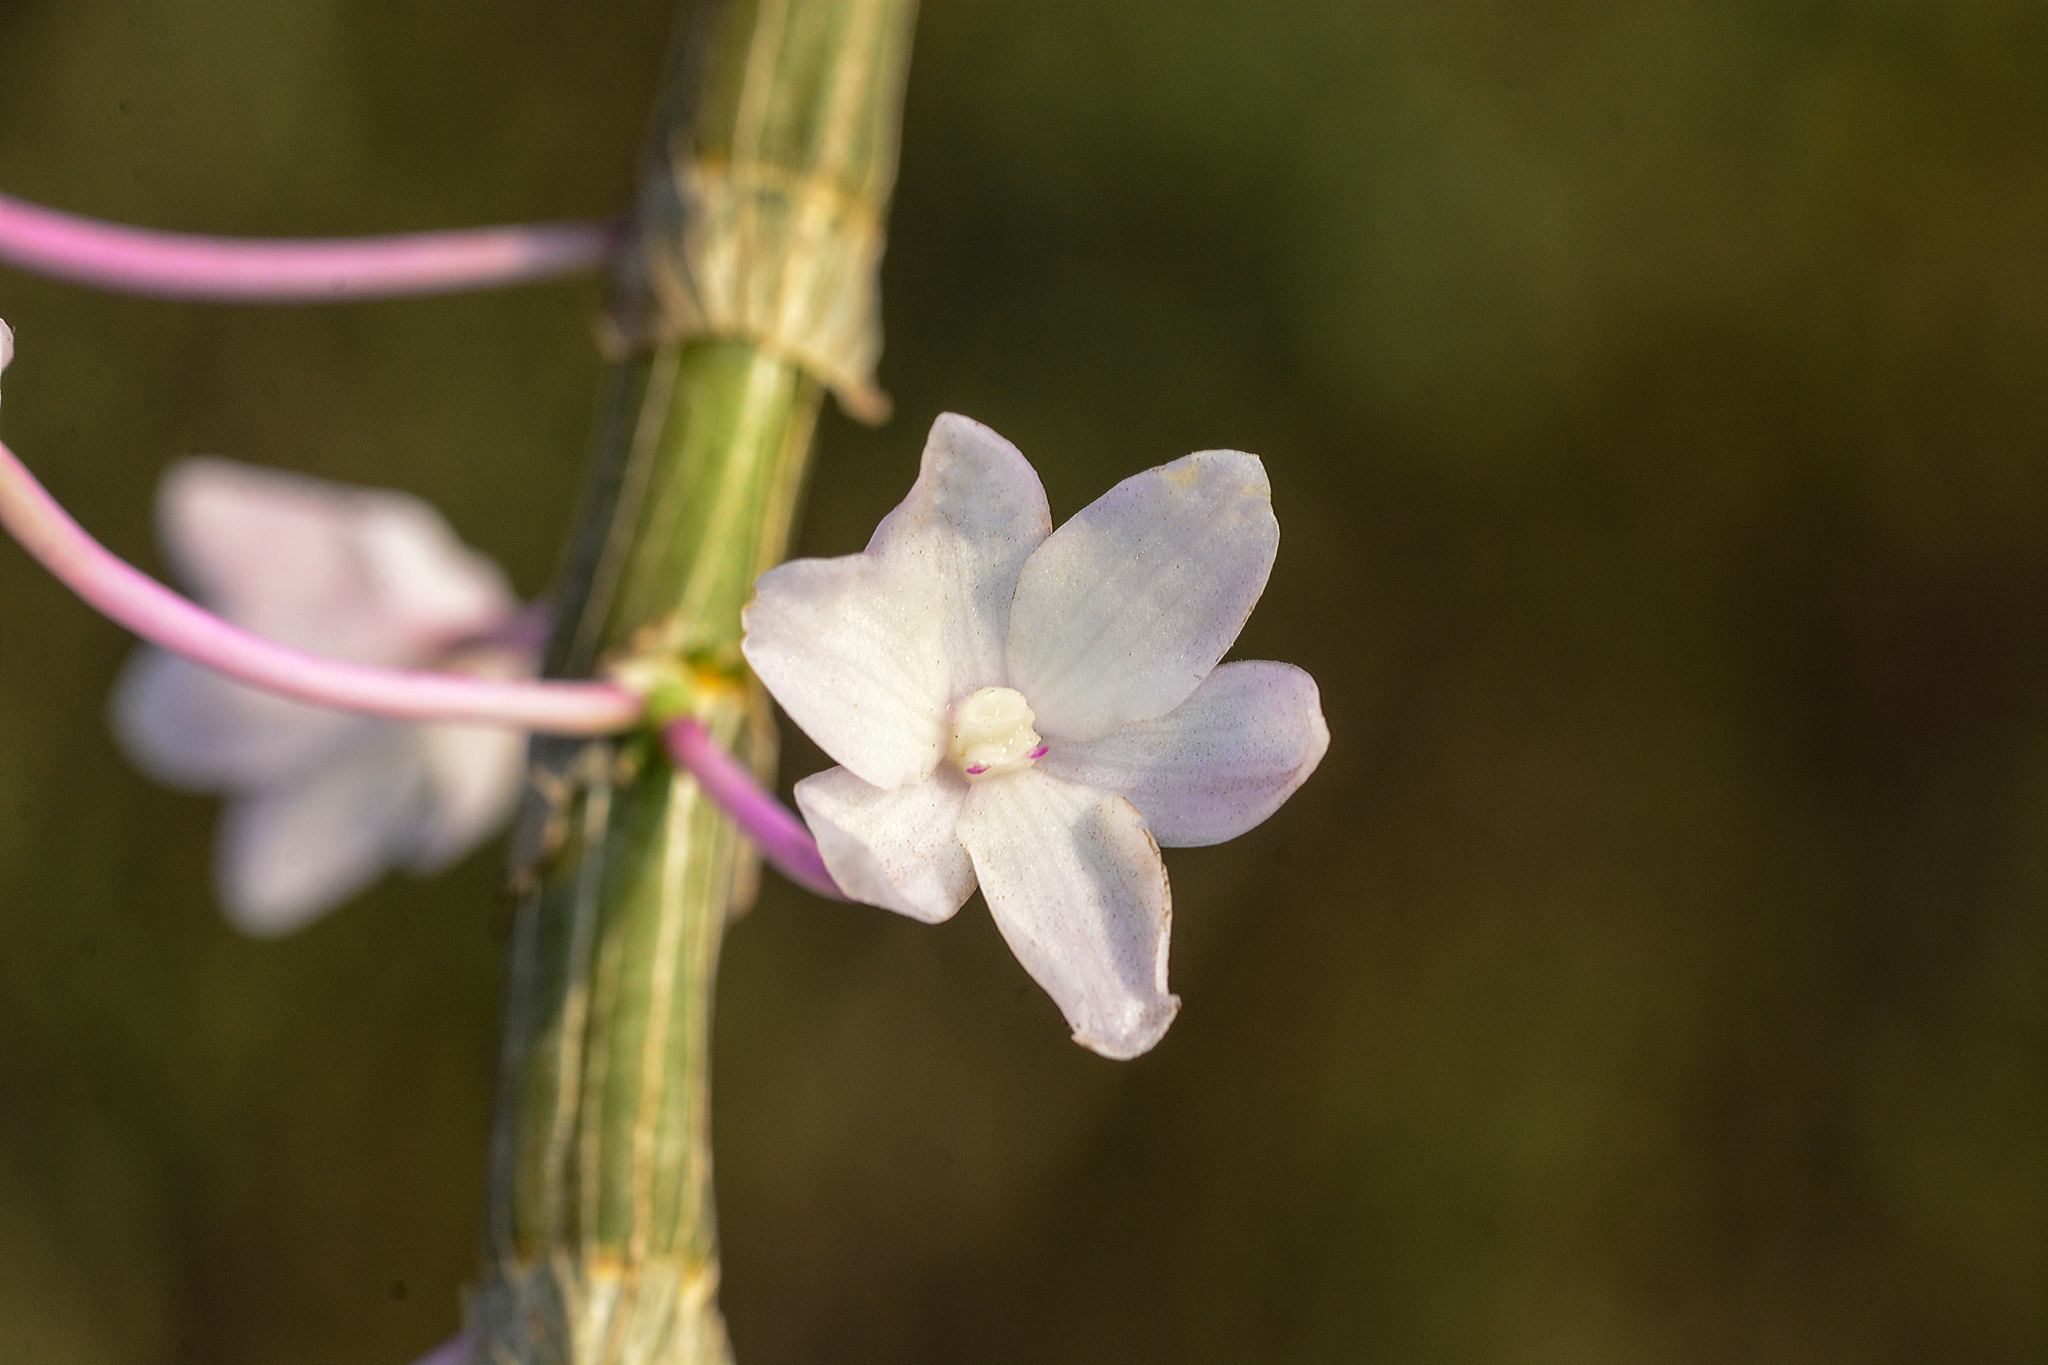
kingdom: Plantae
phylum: Tracheophyta
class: Liliopsida
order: Asparagales
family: Orchidaceae
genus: Dendrobium
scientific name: Dendrobium crepidatum
